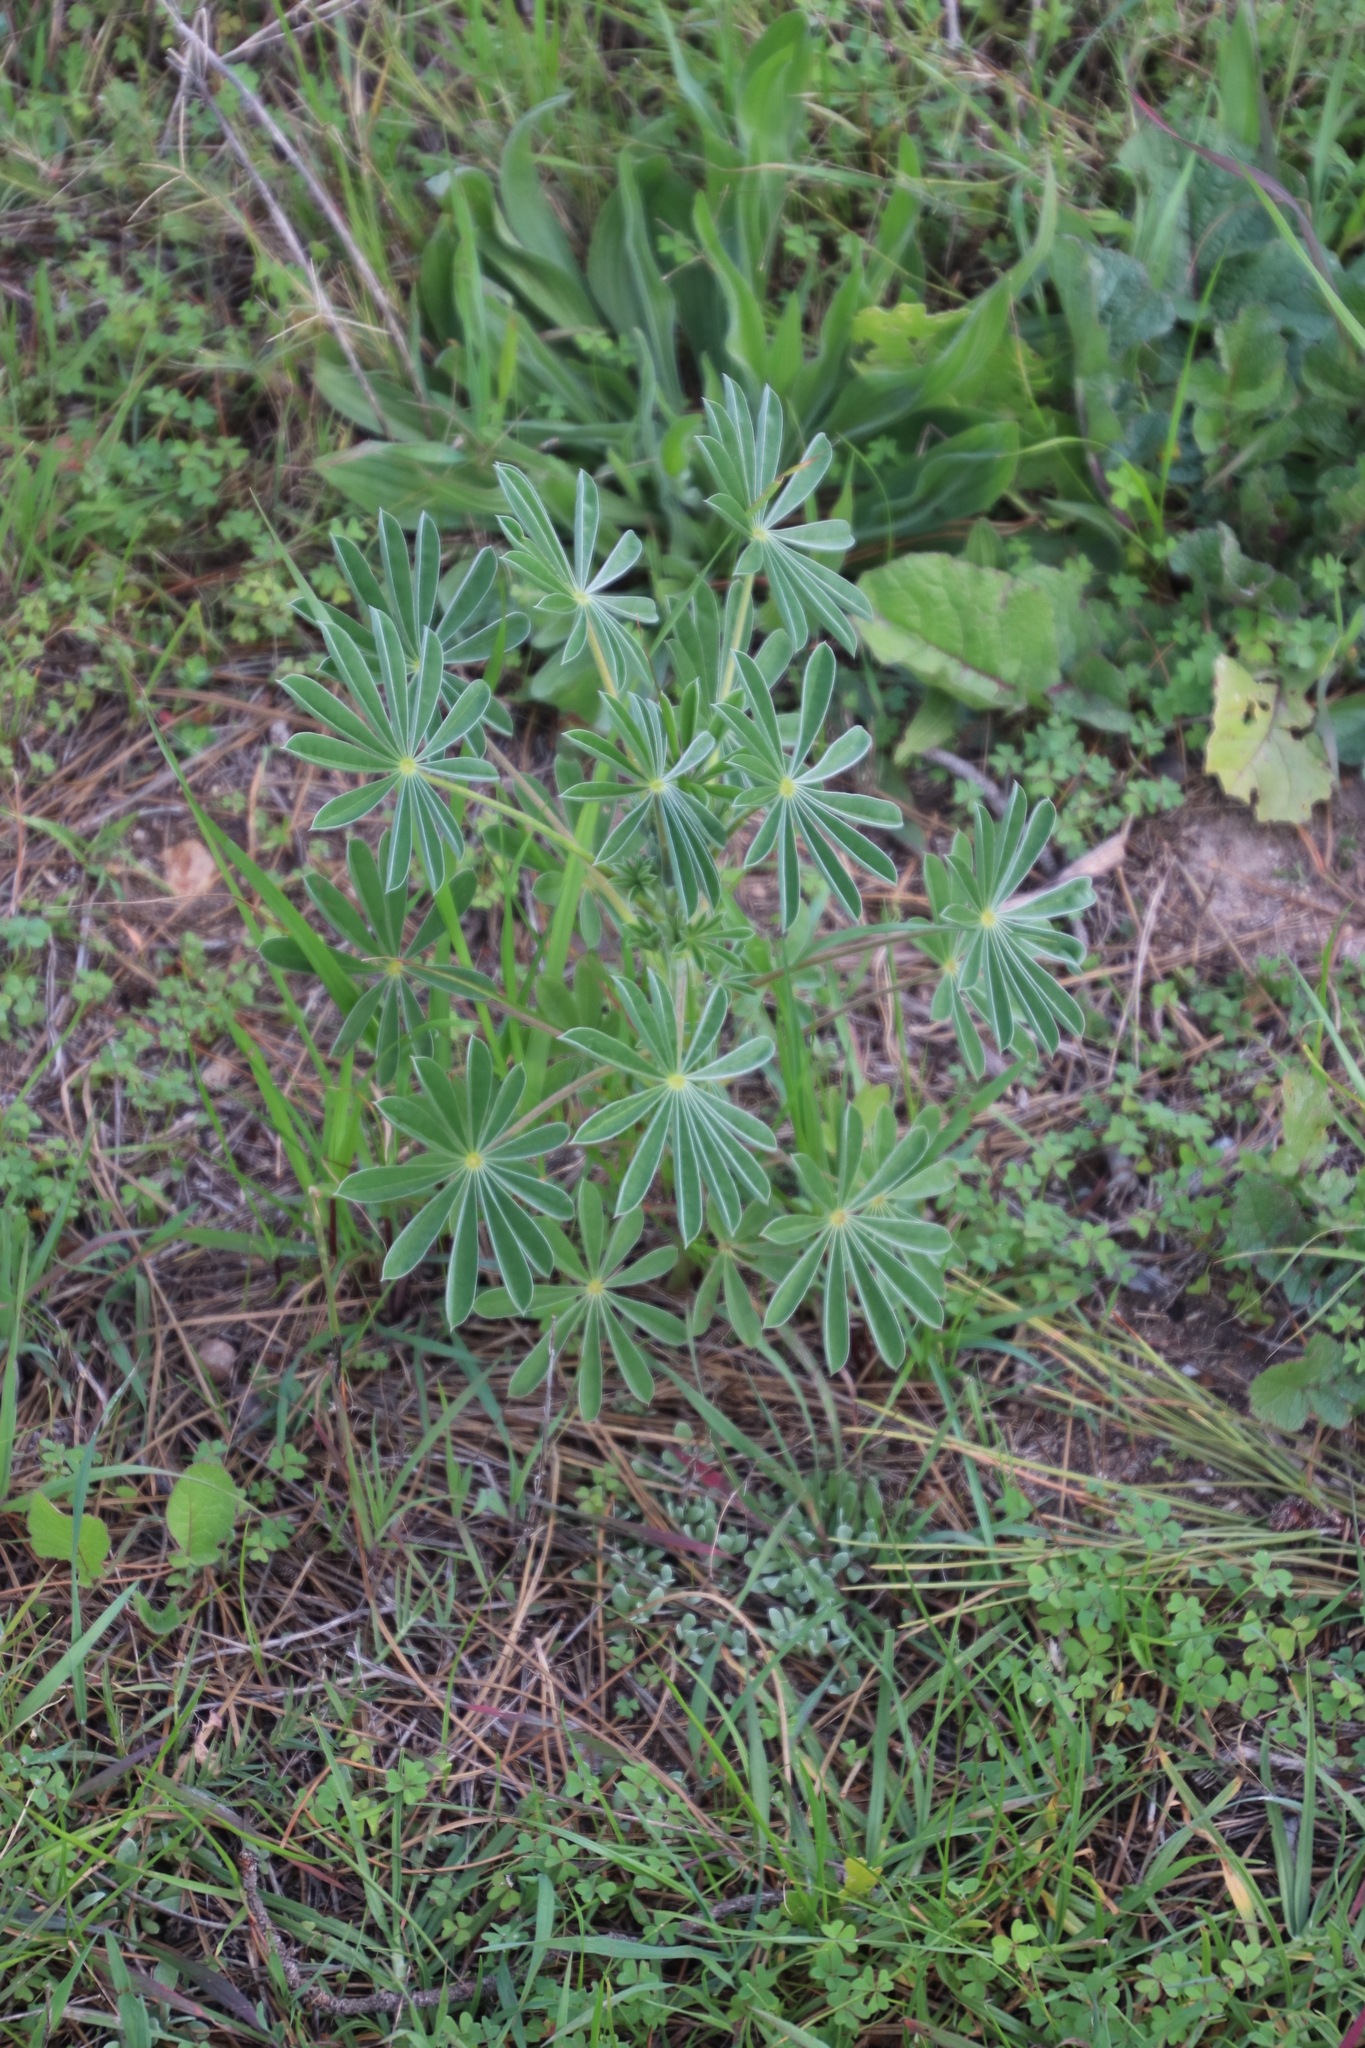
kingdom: Plantae
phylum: Tracheophyta
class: Magnoliopsida
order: Fabales
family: Fabaceae
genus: Lupinus
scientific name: Lupinus cosentinii
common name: Hairy blue lupin
